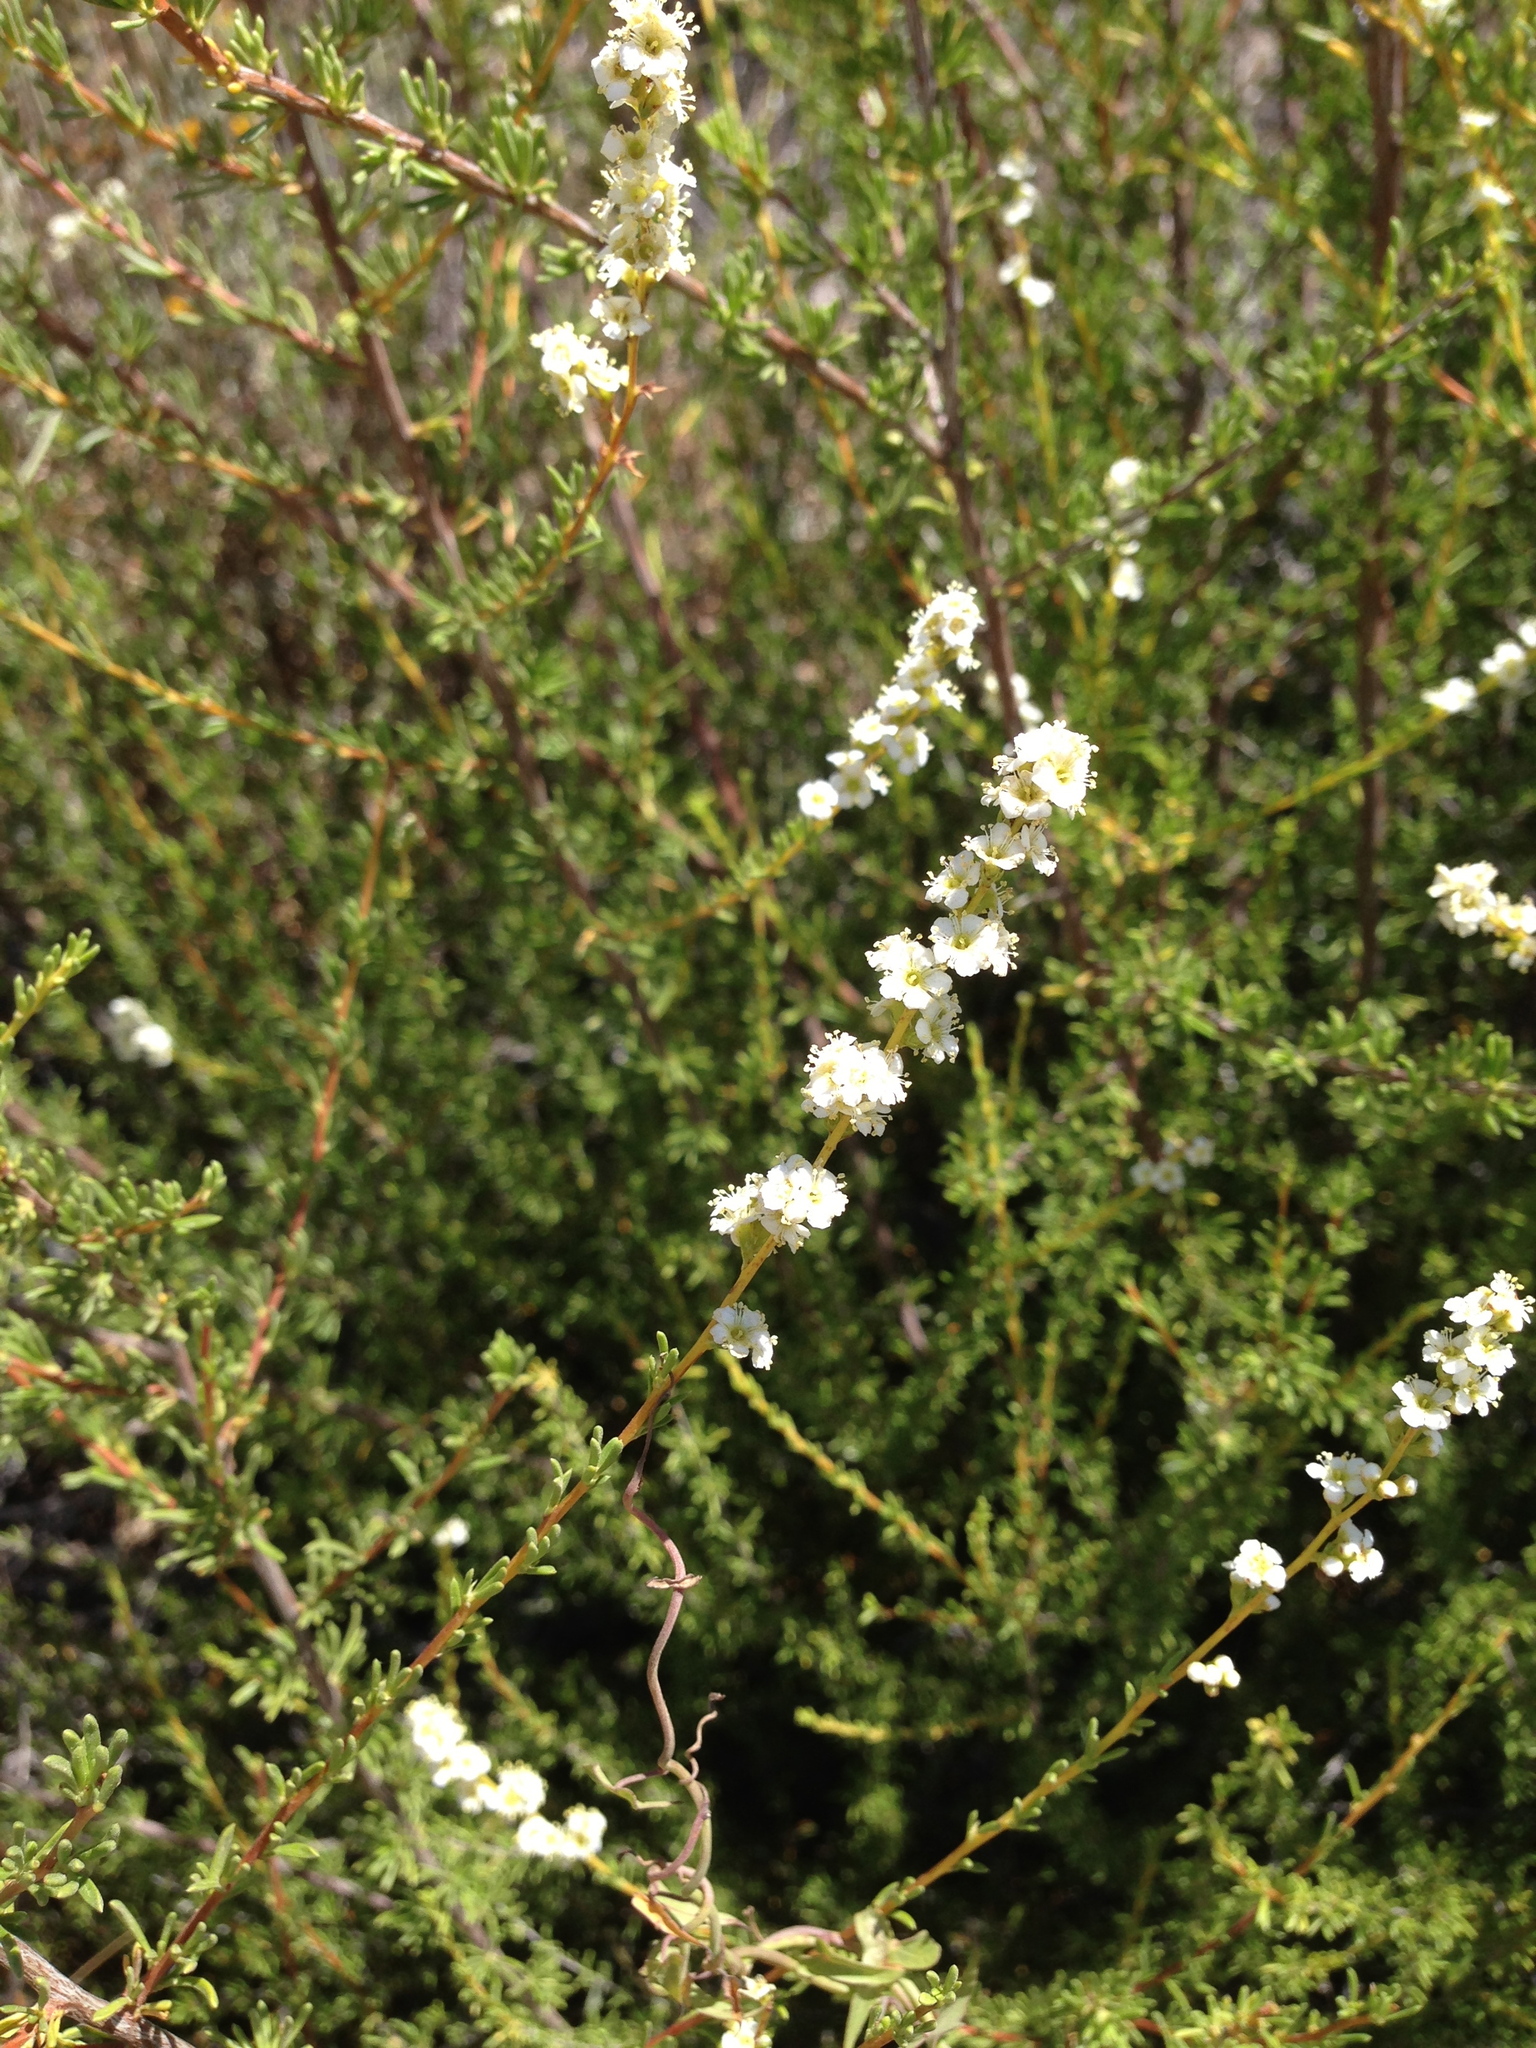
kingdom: Plantae
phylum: Tracheophyta
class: Magnoliopsida
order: Rosales
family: Rosaceae
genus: Adenostoma
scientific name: Adenostoma fasciculatum
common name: Chamise
